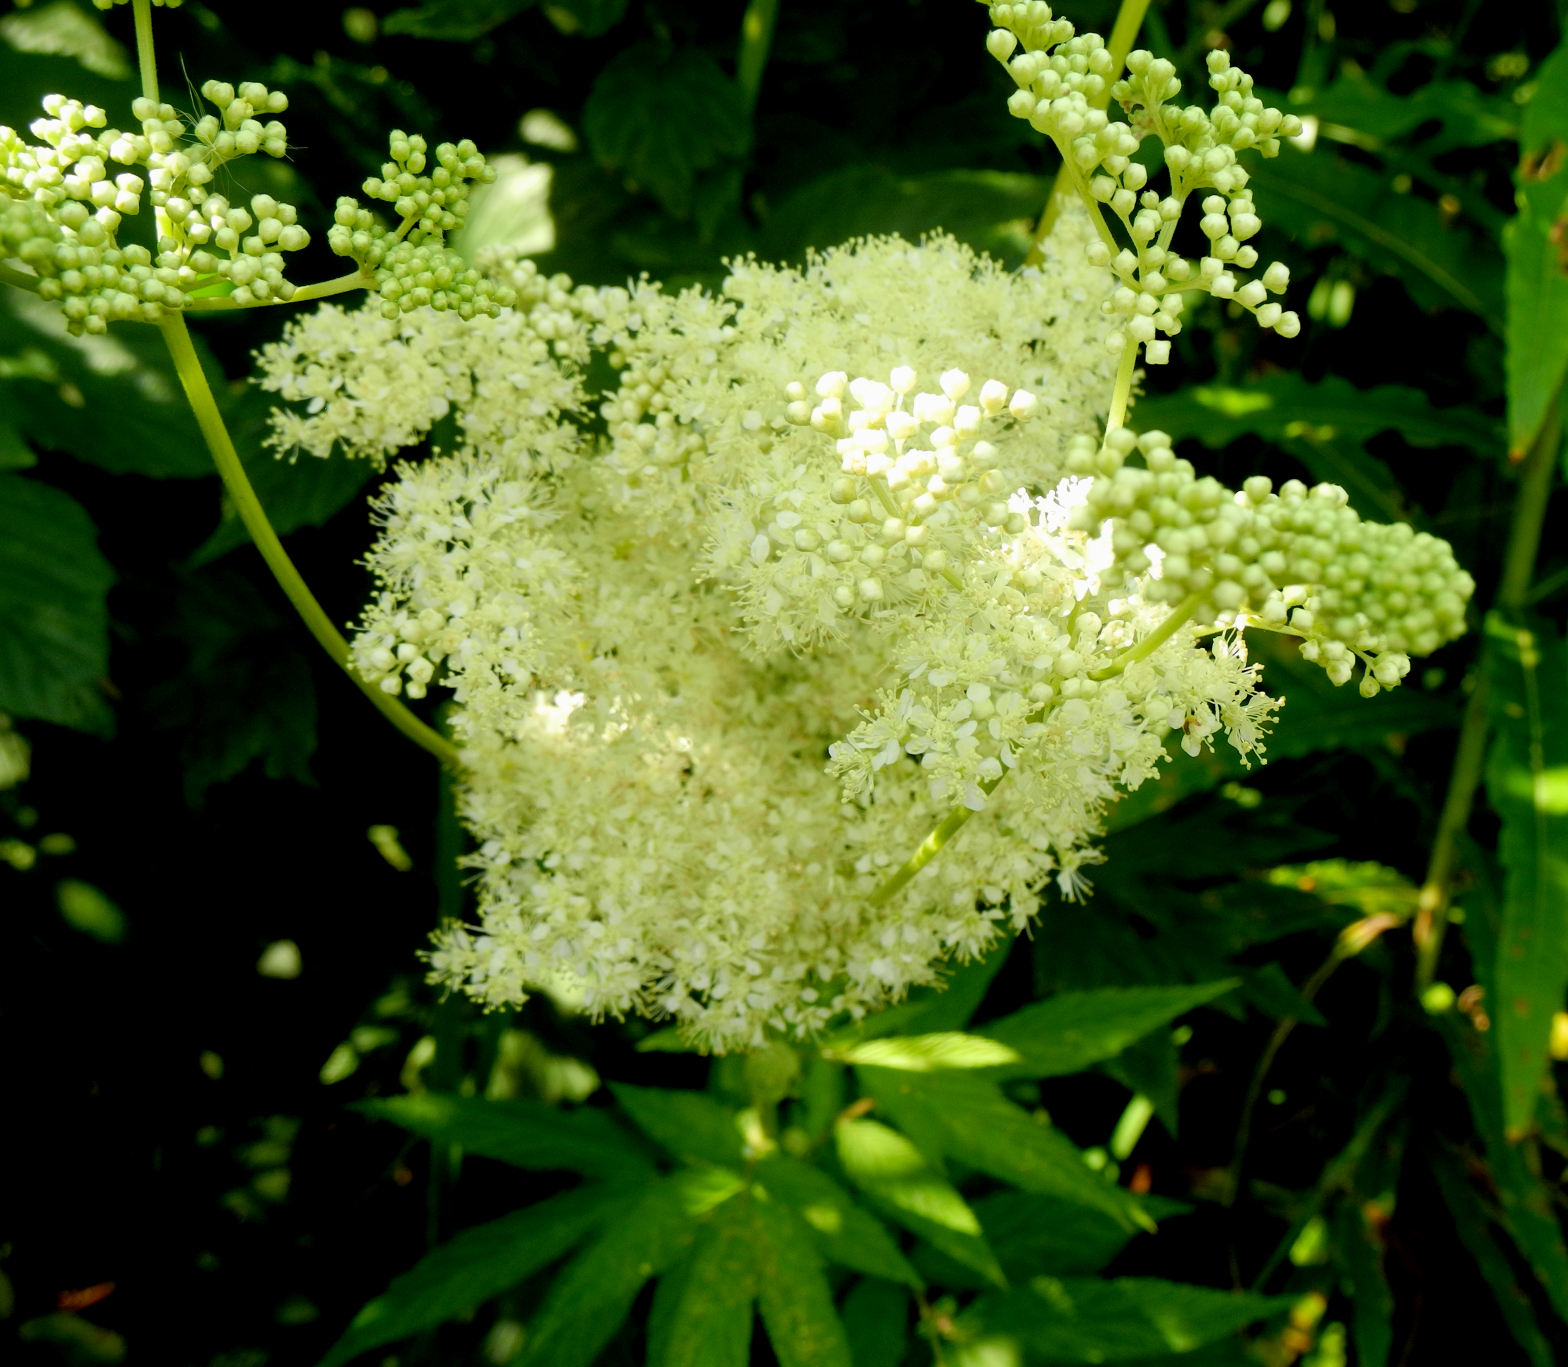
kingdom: Plantae
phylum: Tracheophyta
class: Magnoliopsida
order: Rosales
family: Rosaceae
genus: Filipendula
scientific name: Filipendula ulmaria
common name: Meadowsweet
